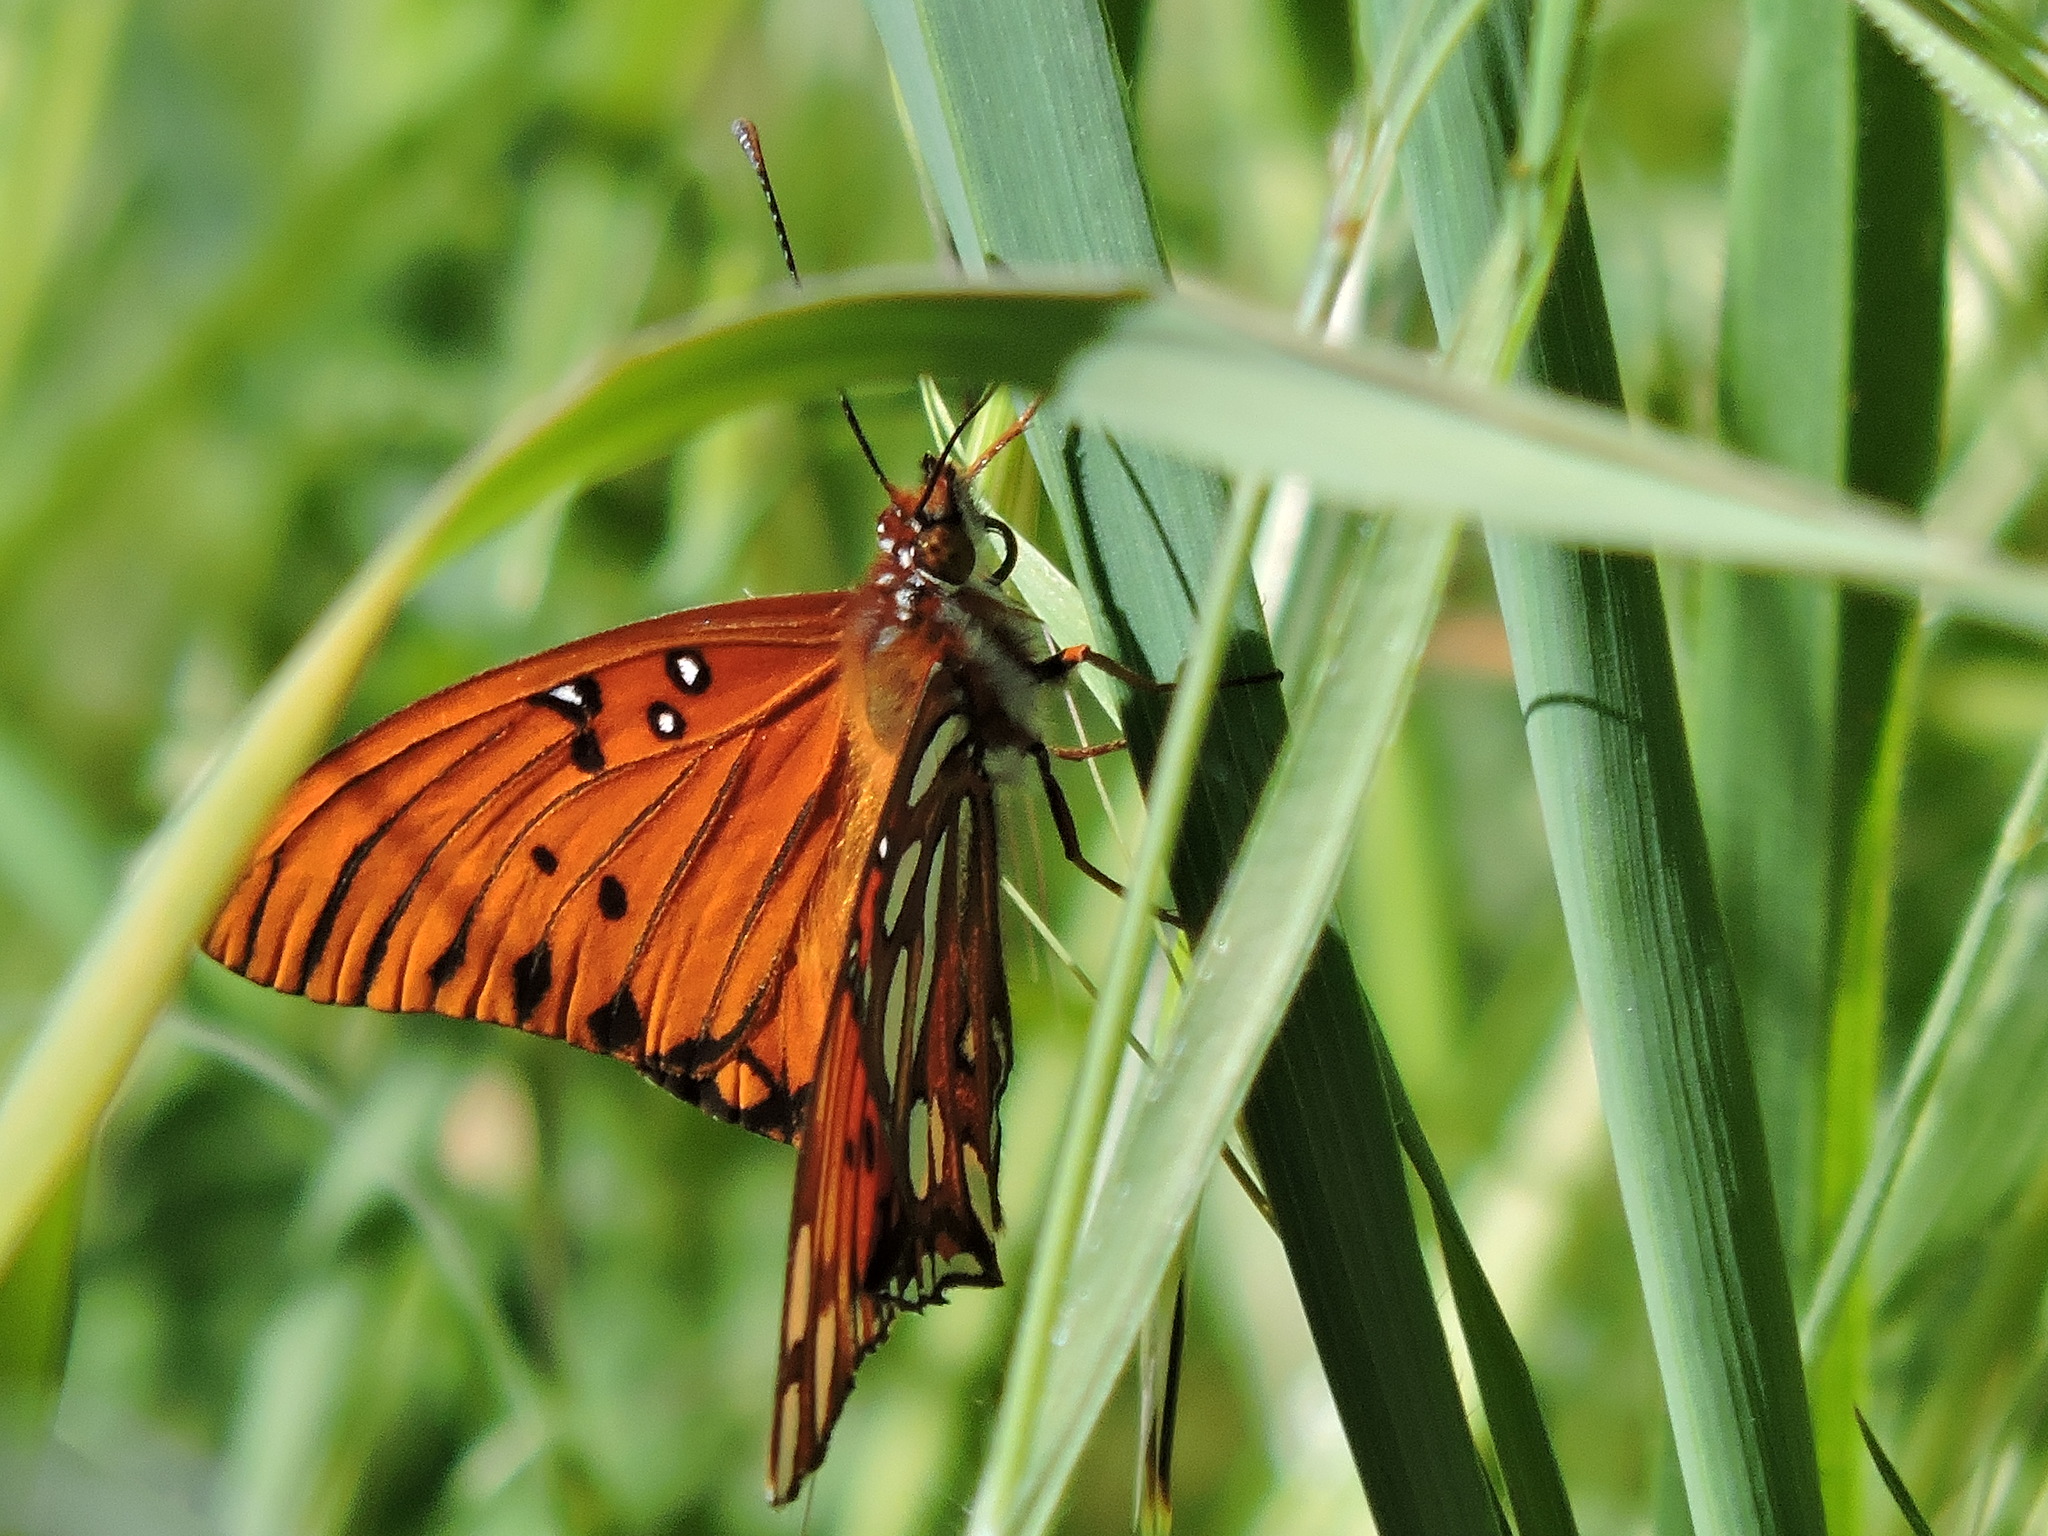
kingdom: Animalia
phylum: Arthropoda
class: Insecta
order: Lepidoptera
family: Nymphalidae
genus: Dione
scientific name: Dione vanillae
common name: Gulf fritillary
